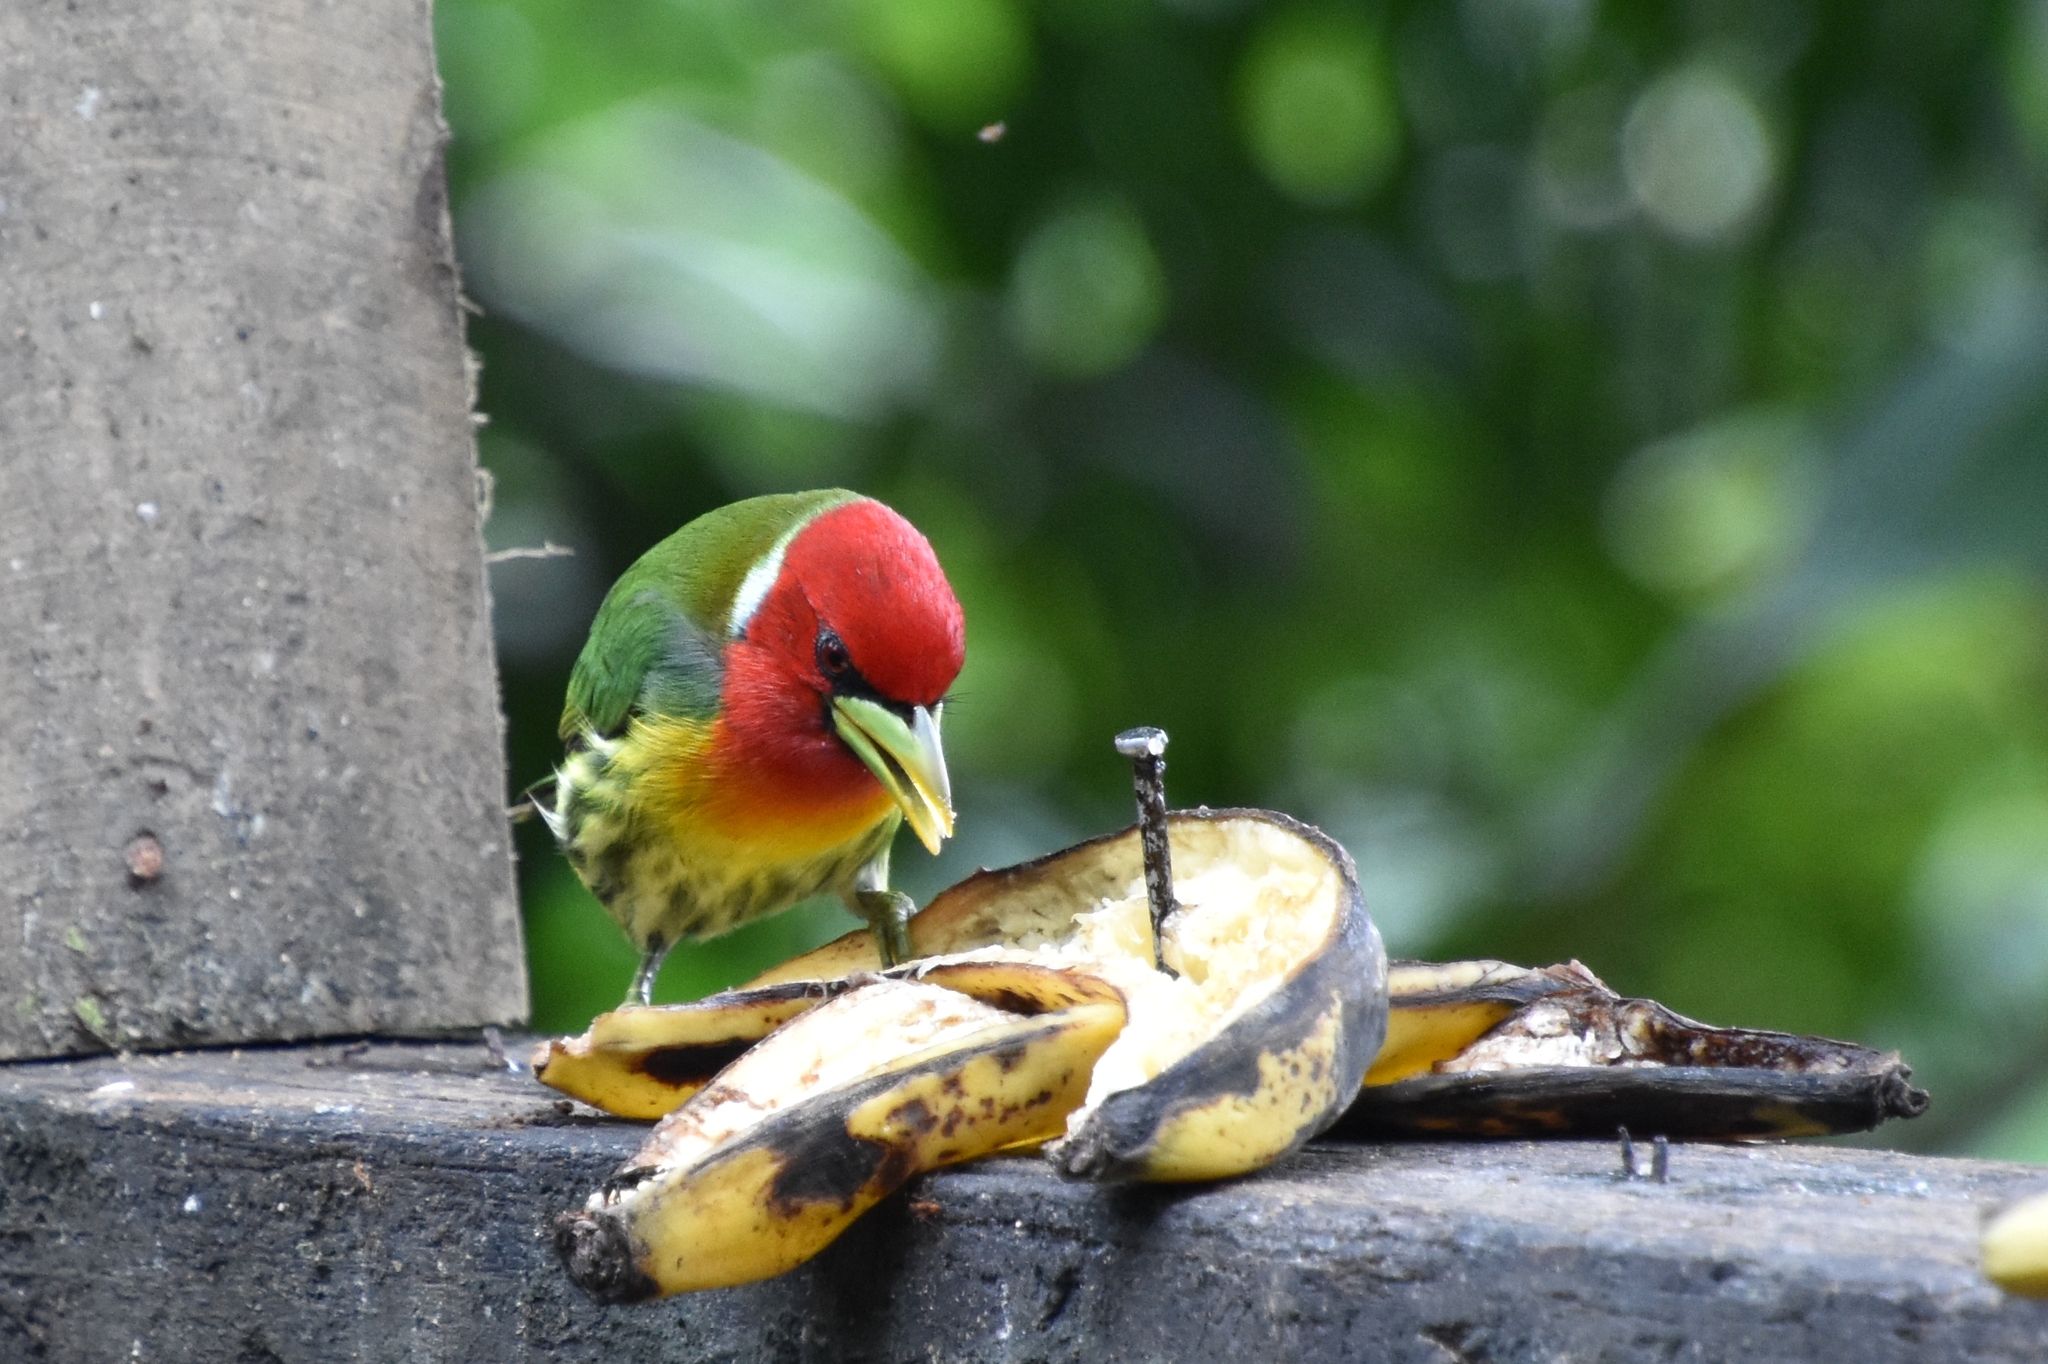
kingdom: Animalia
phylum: Chordata
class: Aves
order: Piciformes
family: Capitonidae
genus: Eubucco
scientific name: Eubucco bourcierii
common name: Red-headed barbet
